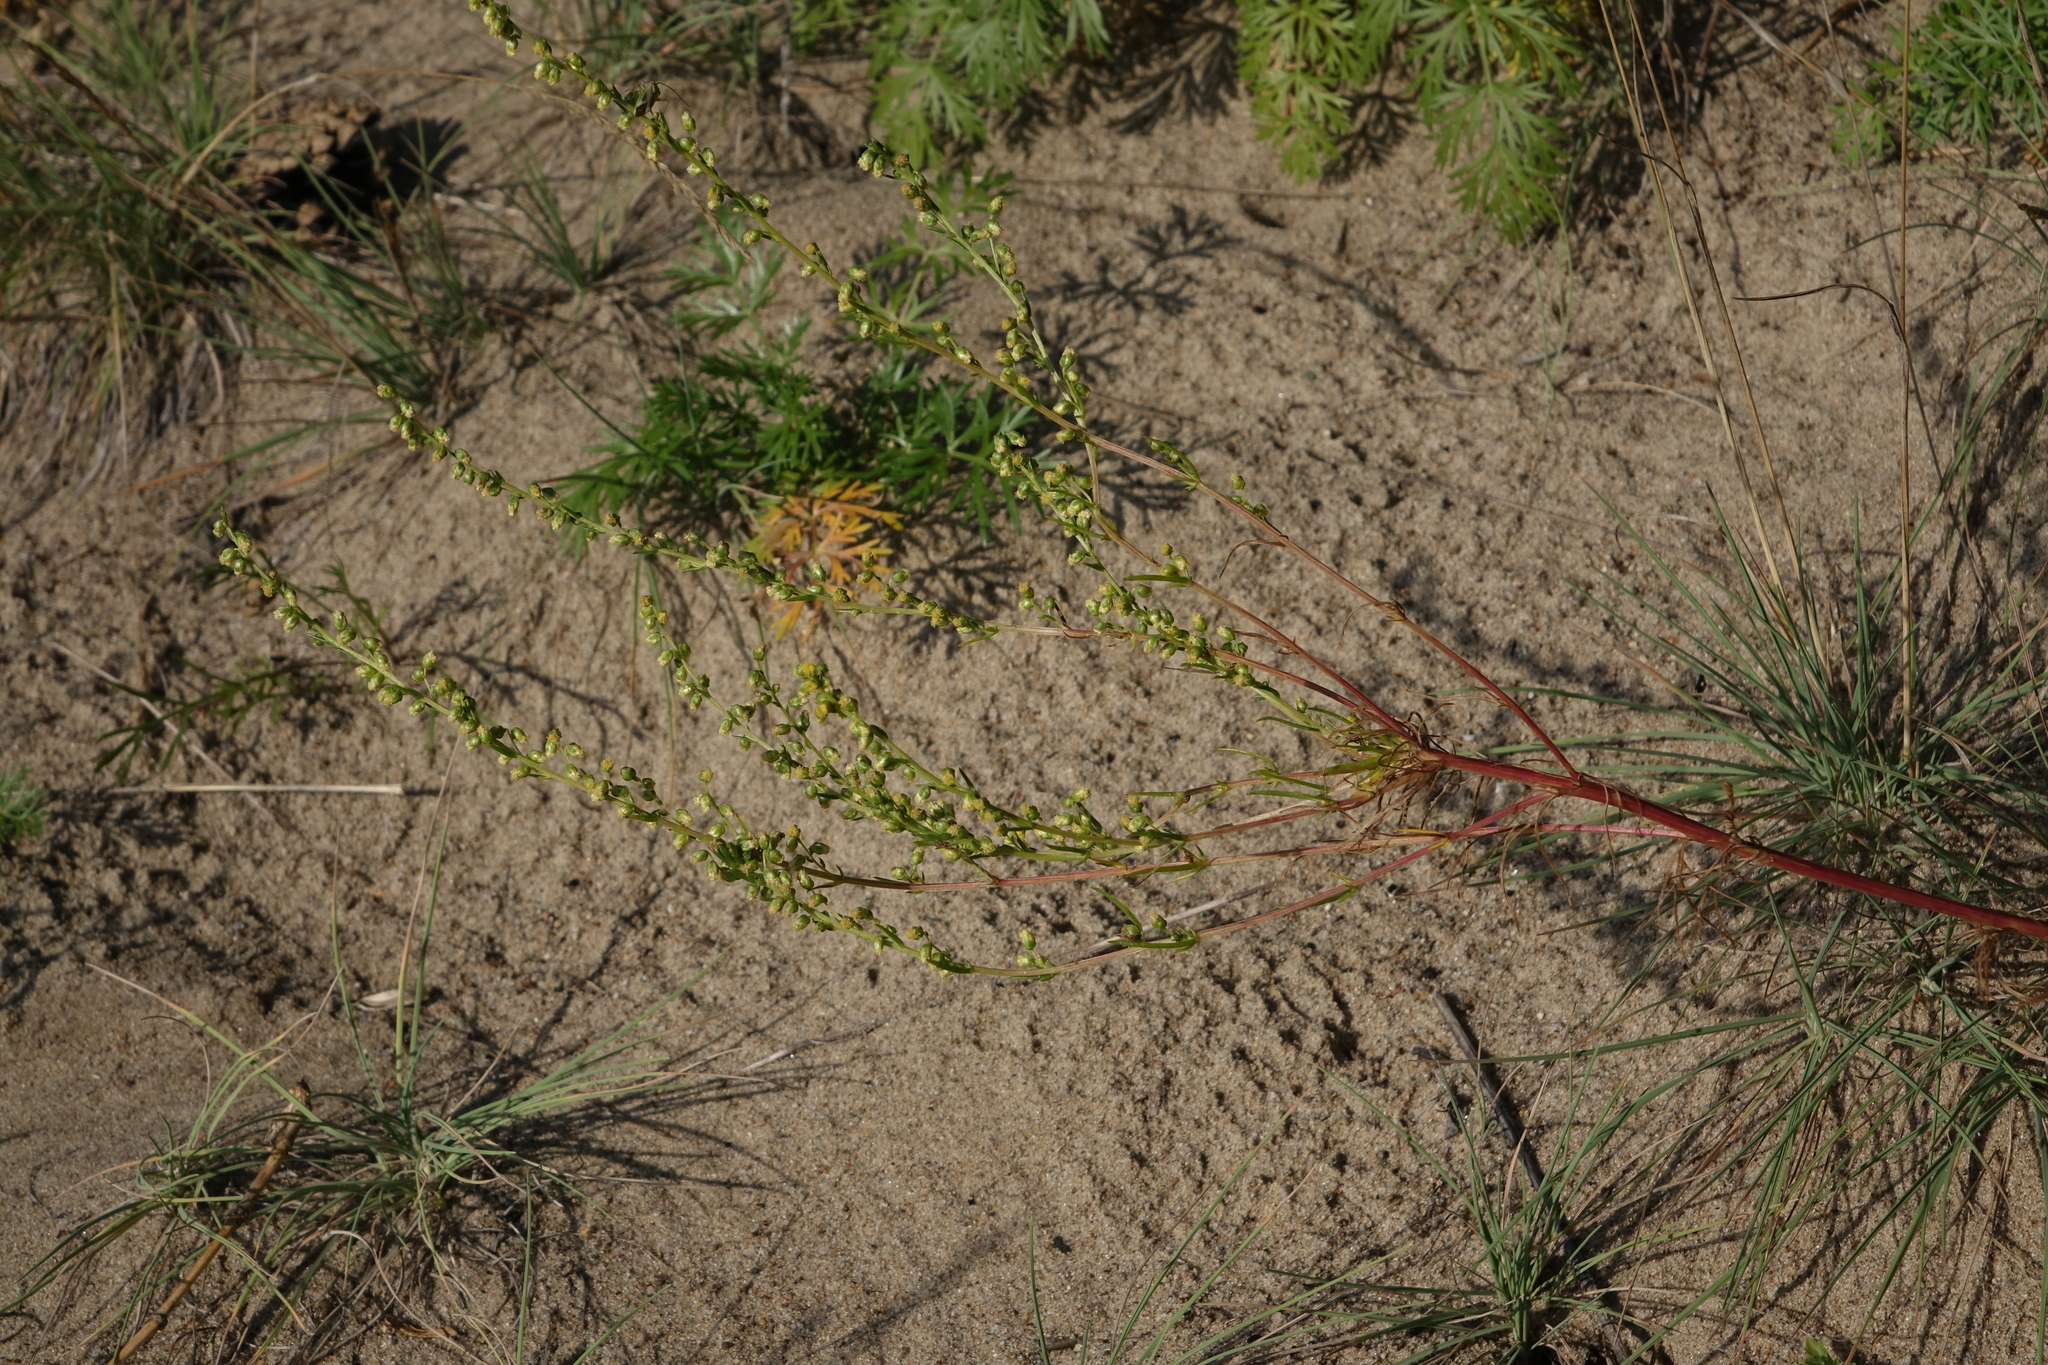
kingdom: Plantae
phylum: Tracheophyta
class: Magnoliopsida
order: Asterales
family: Asteraceae
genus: Artemisia
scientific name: Artemisia pubescens
